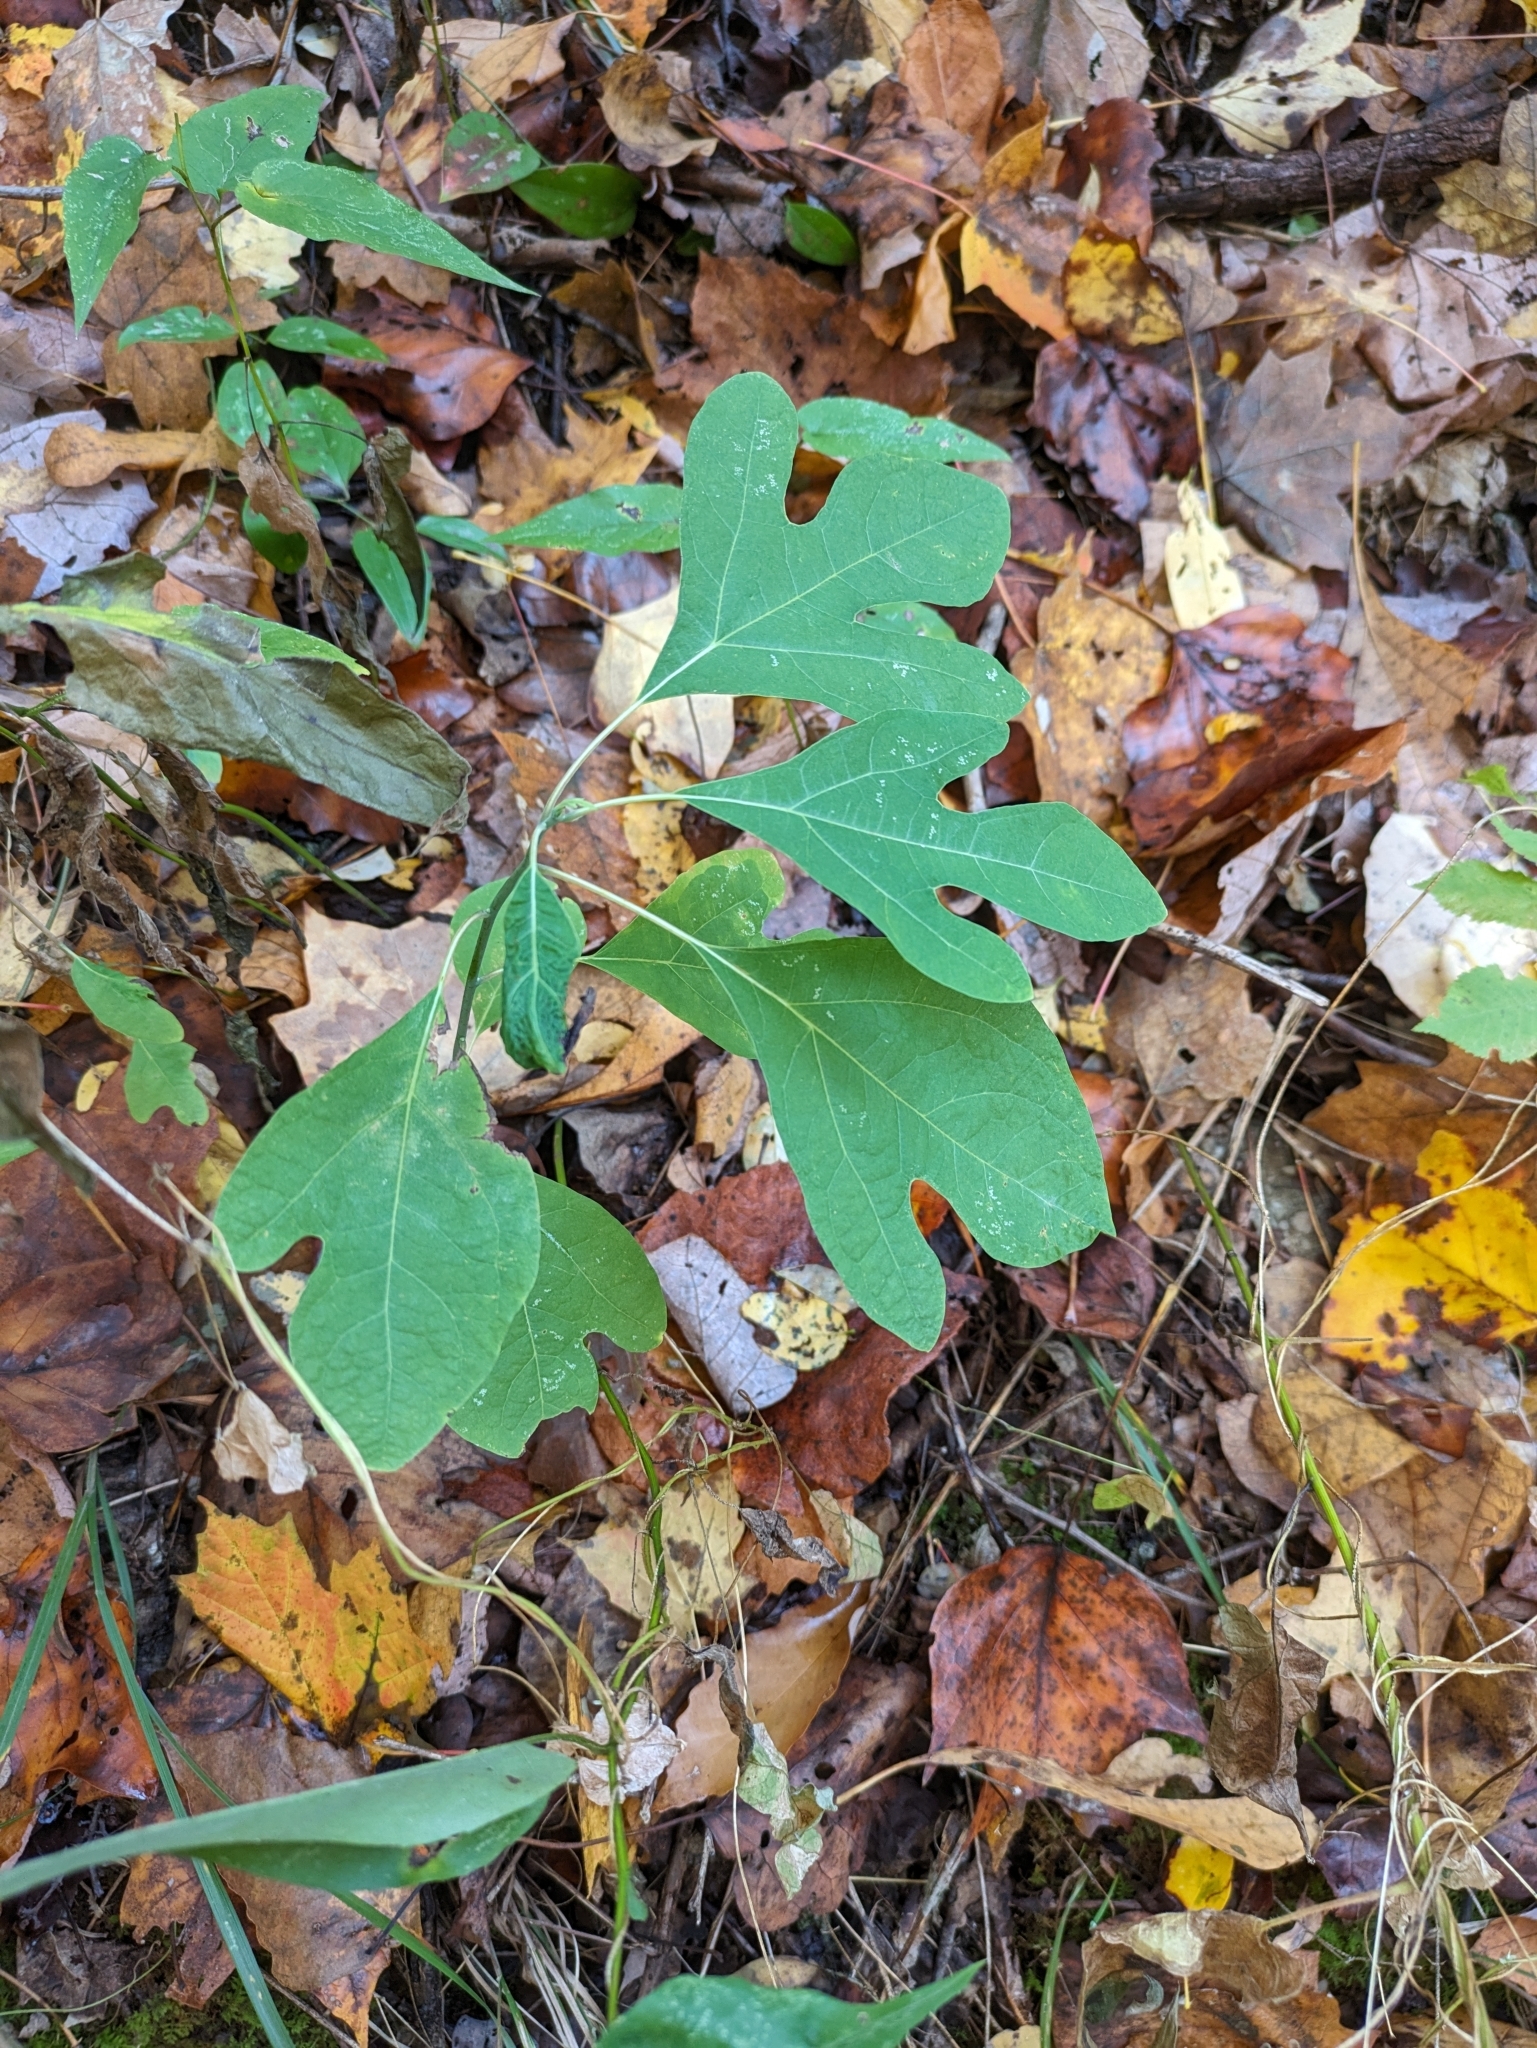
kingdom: Plantae
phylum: Tracheophyta
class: Magnoliopsida
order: Laurales
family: Lauraceae
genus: Sassafras
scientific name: Sassafras albidum
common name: Sassafras
